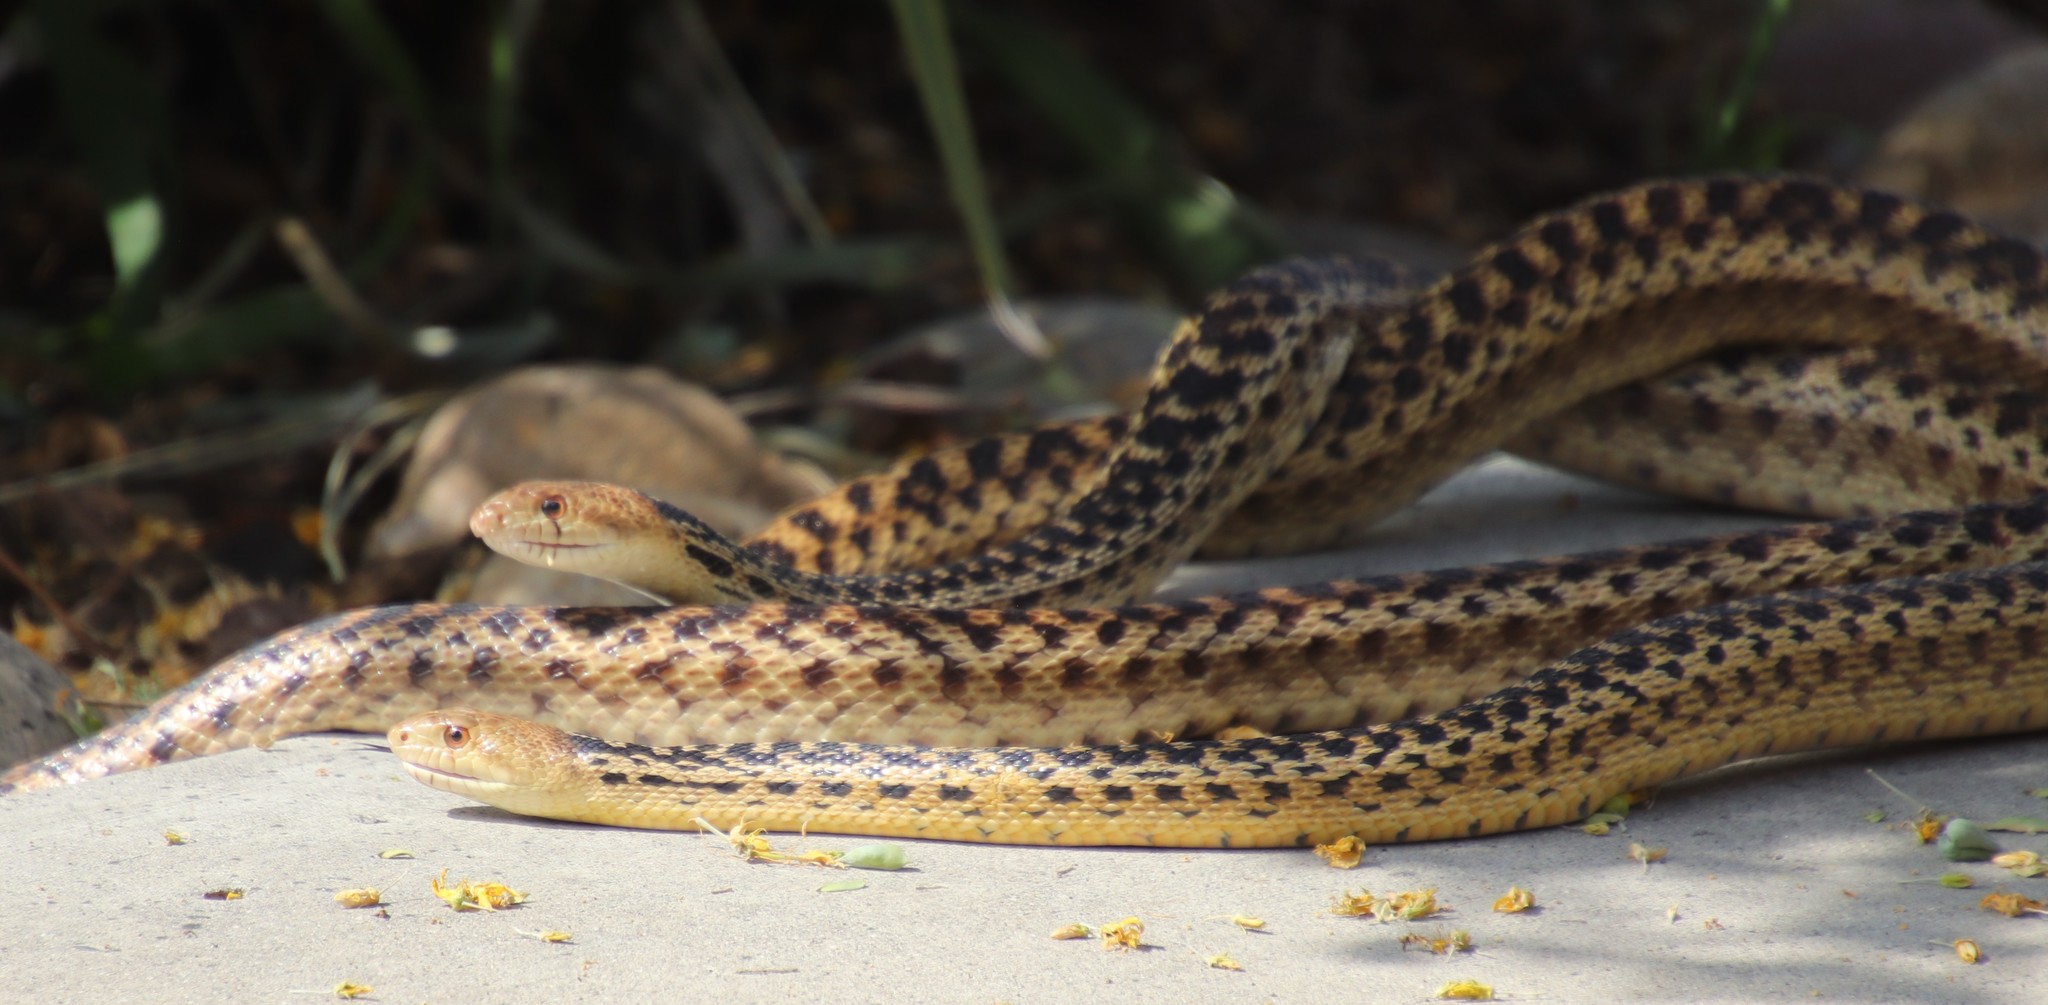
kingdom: Animalia
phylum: Chordata
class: Squamata
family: Colubridae
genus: Pituophis
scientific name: Pituophis catenifer
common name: Gopher snake
